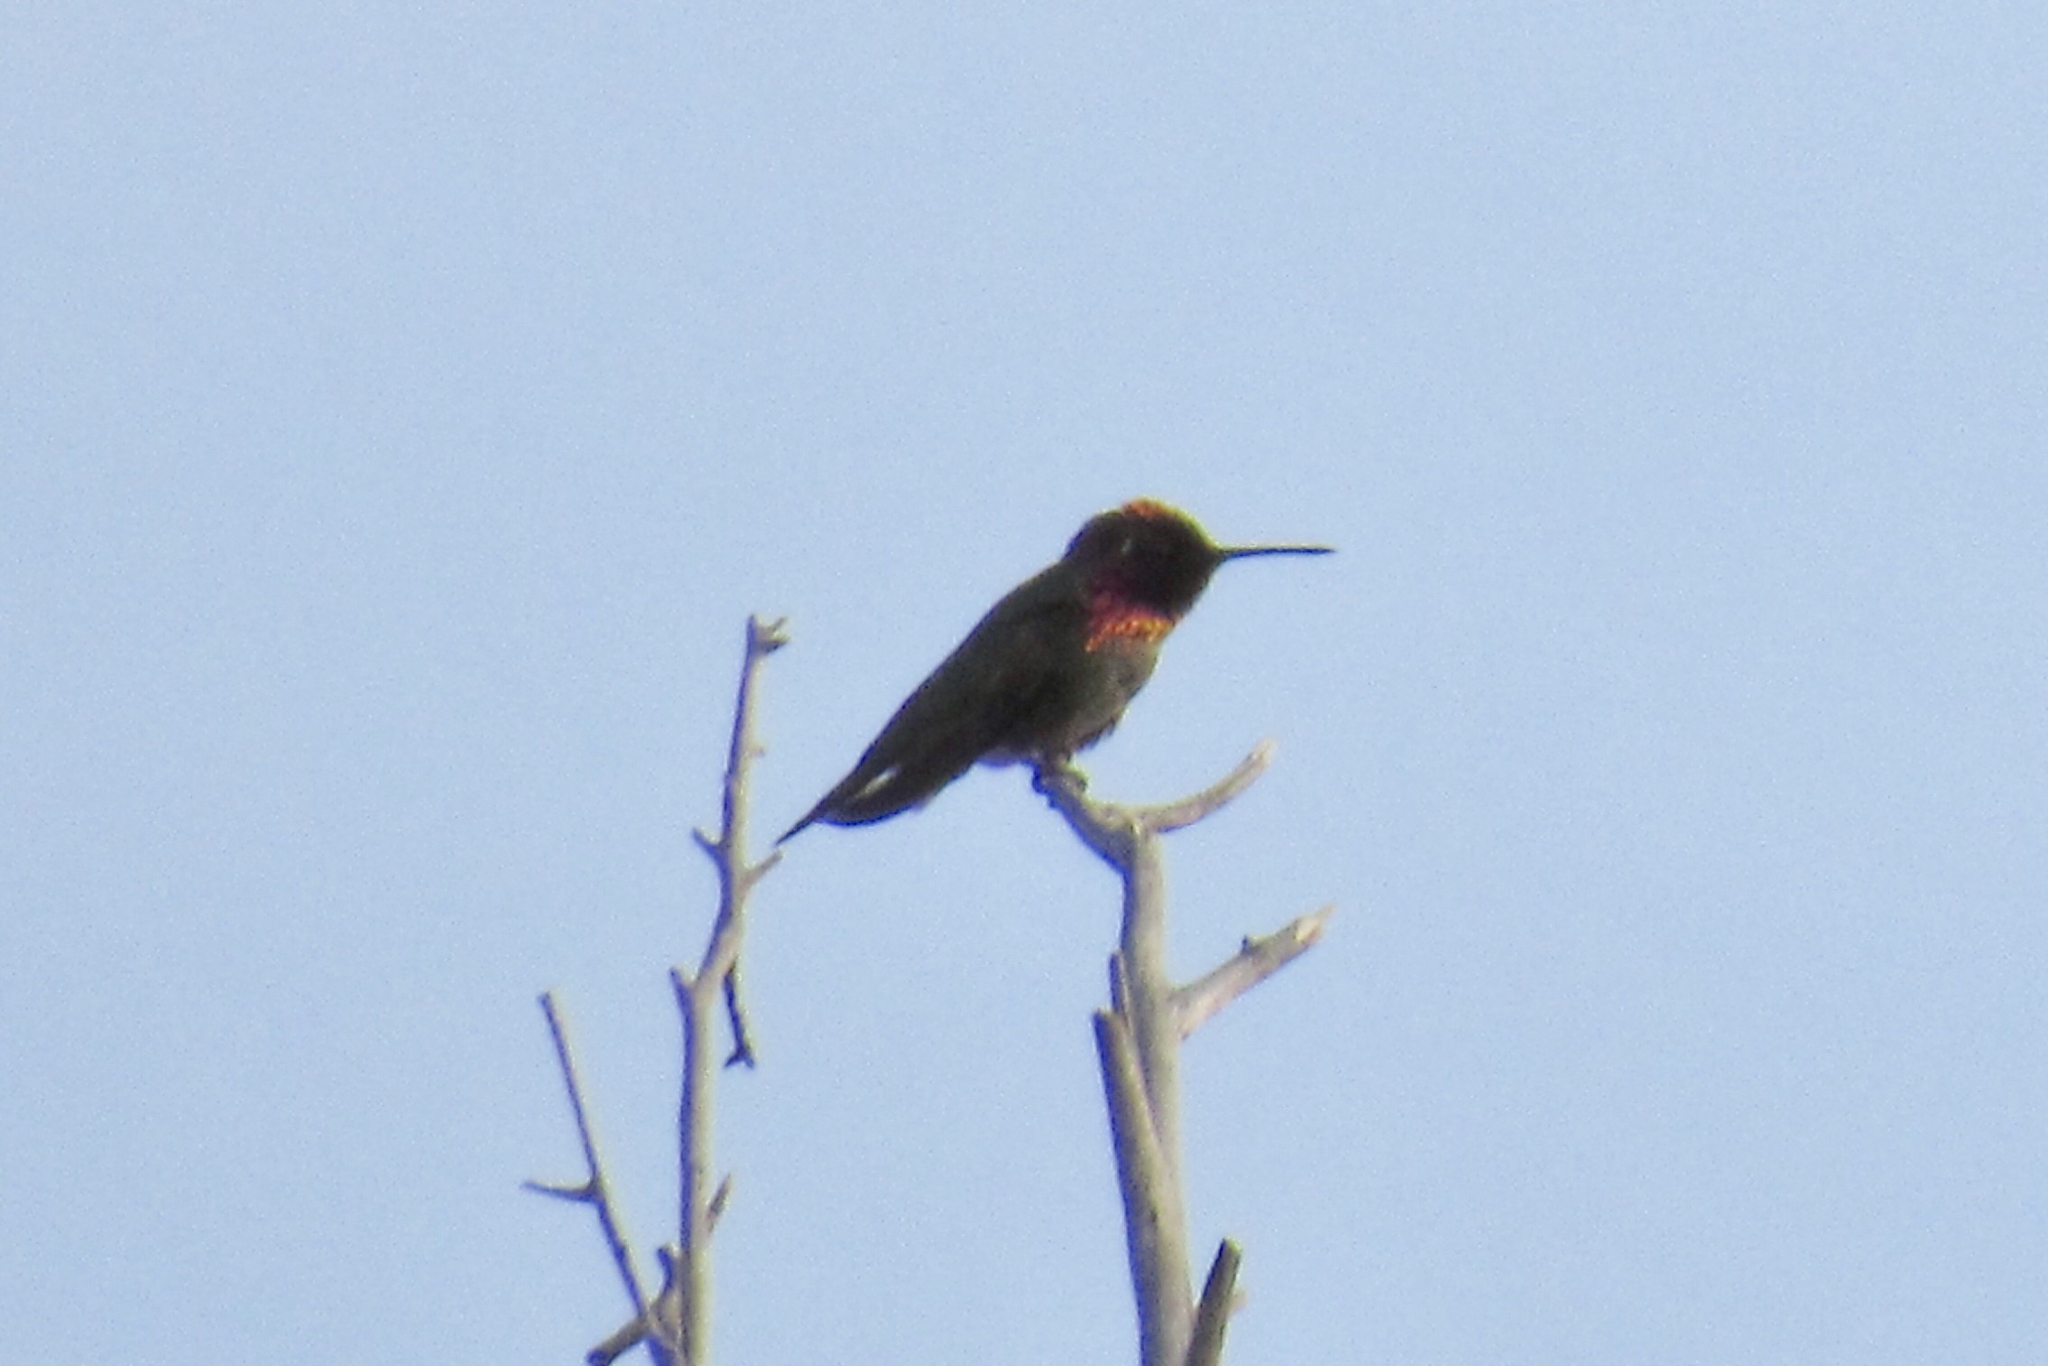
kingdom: Animalia
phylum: Chordata
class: Aves
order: Apodiformes
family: Trochilidae
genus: Calypte
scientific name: Calypte anna
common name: Anna's hummingbird
